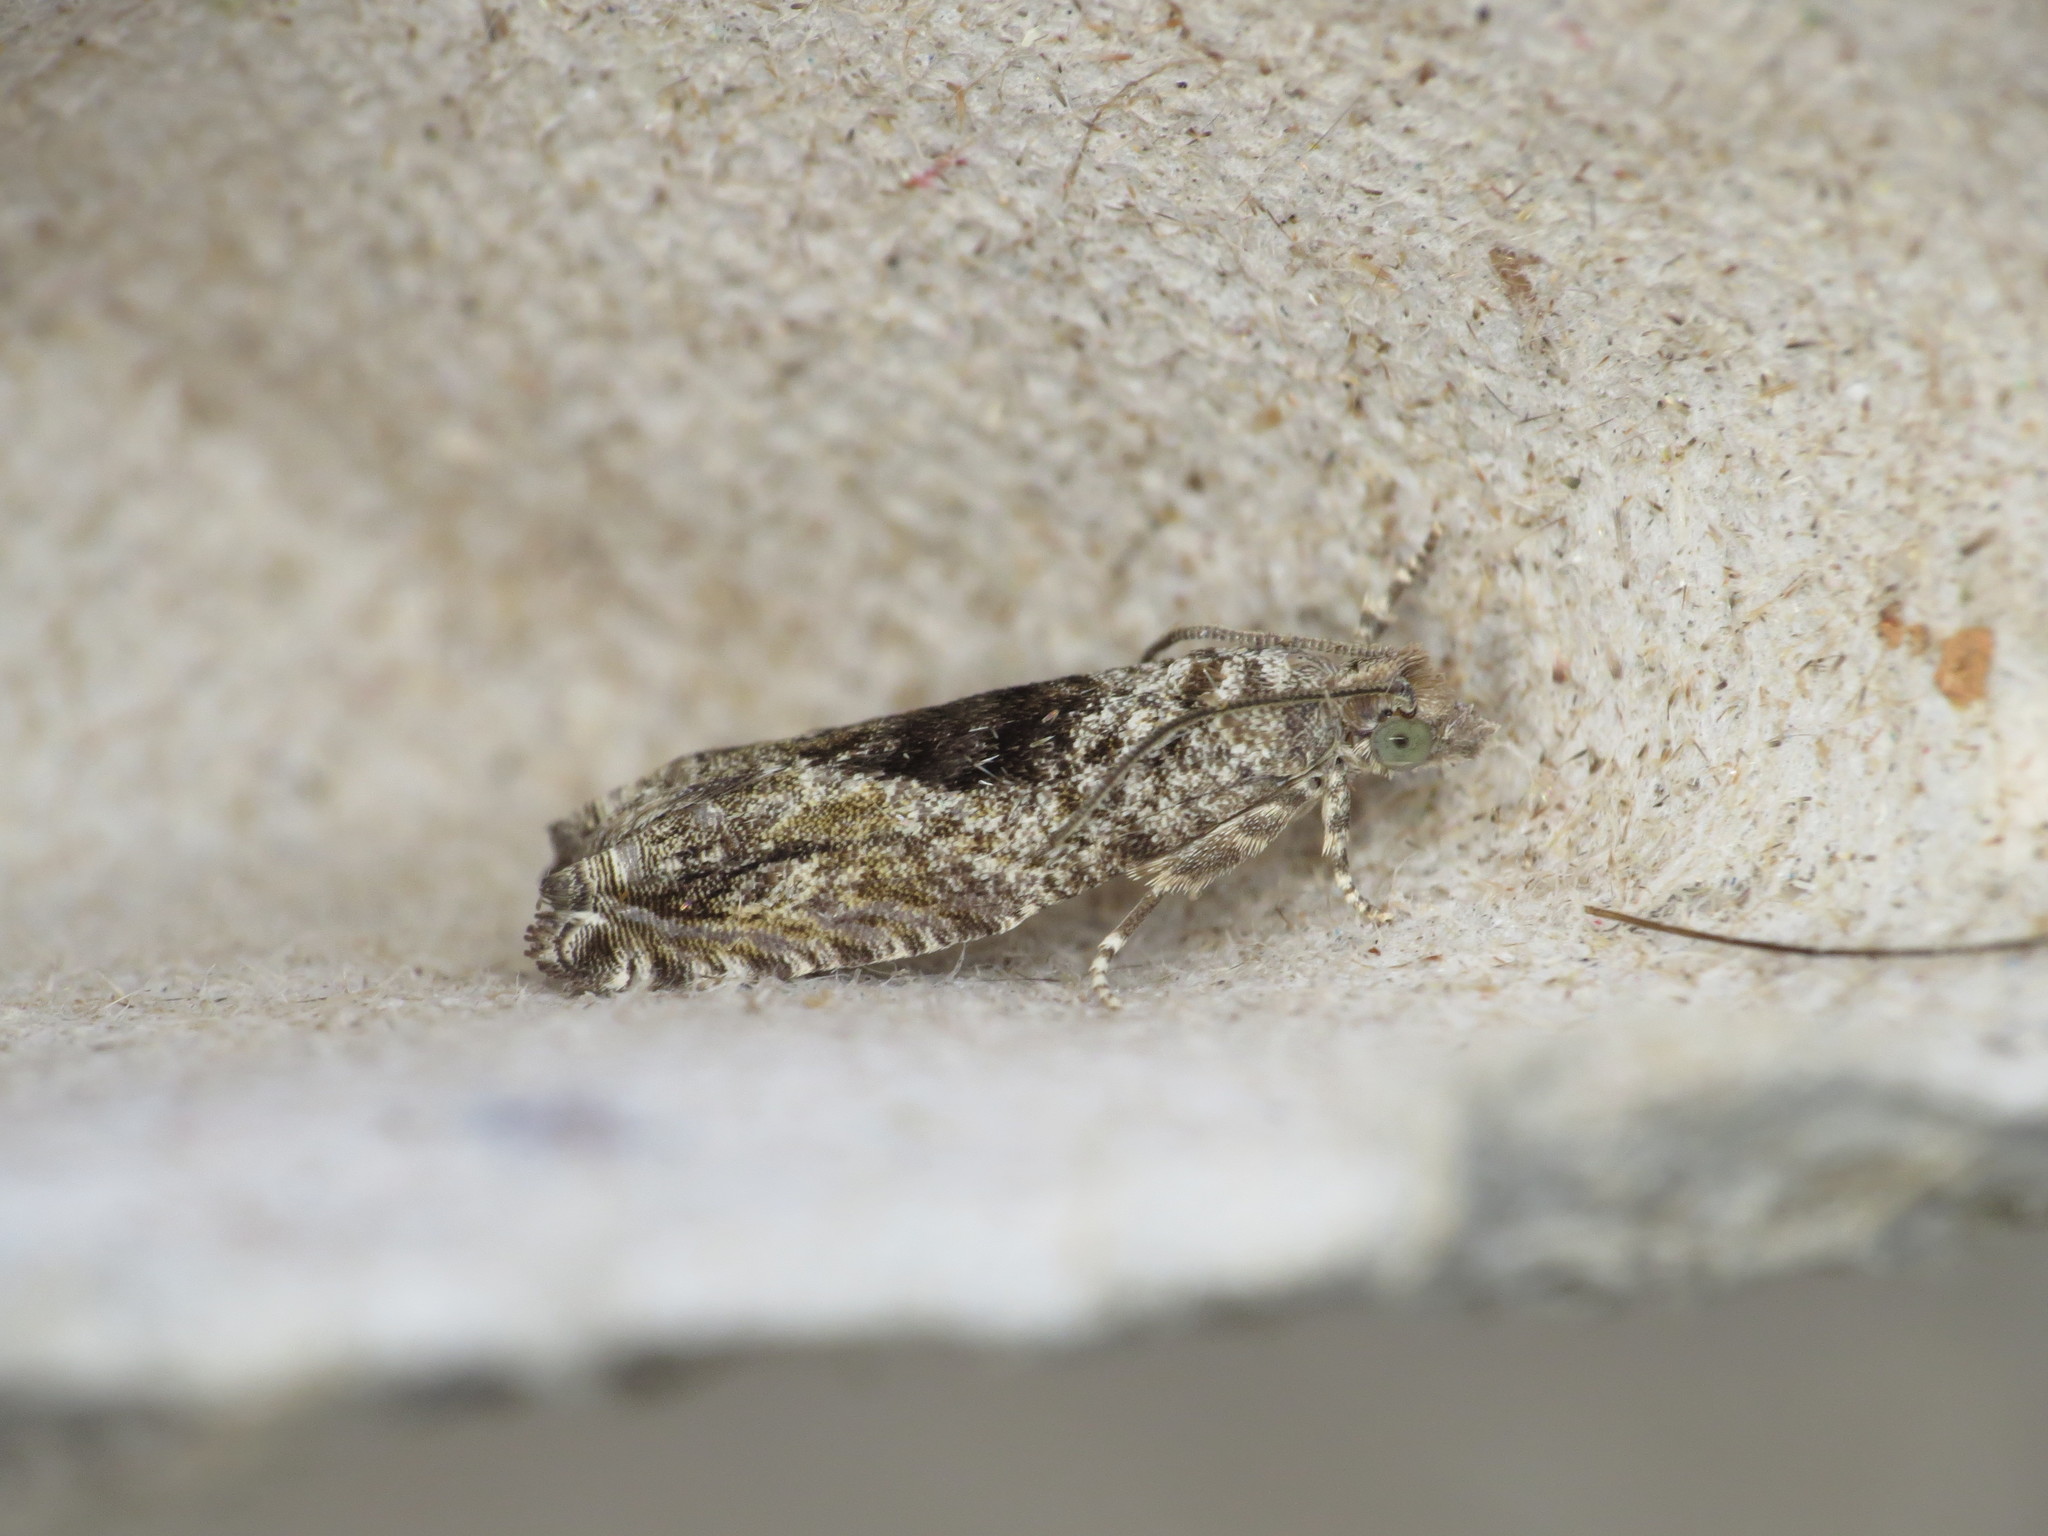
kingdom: Animalia
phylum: Arthropoda
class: Insecta
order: Lepidoptera
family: Tortricidae
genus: Epinotia
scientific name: Epinotia nisella
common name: Grey poplar bell
